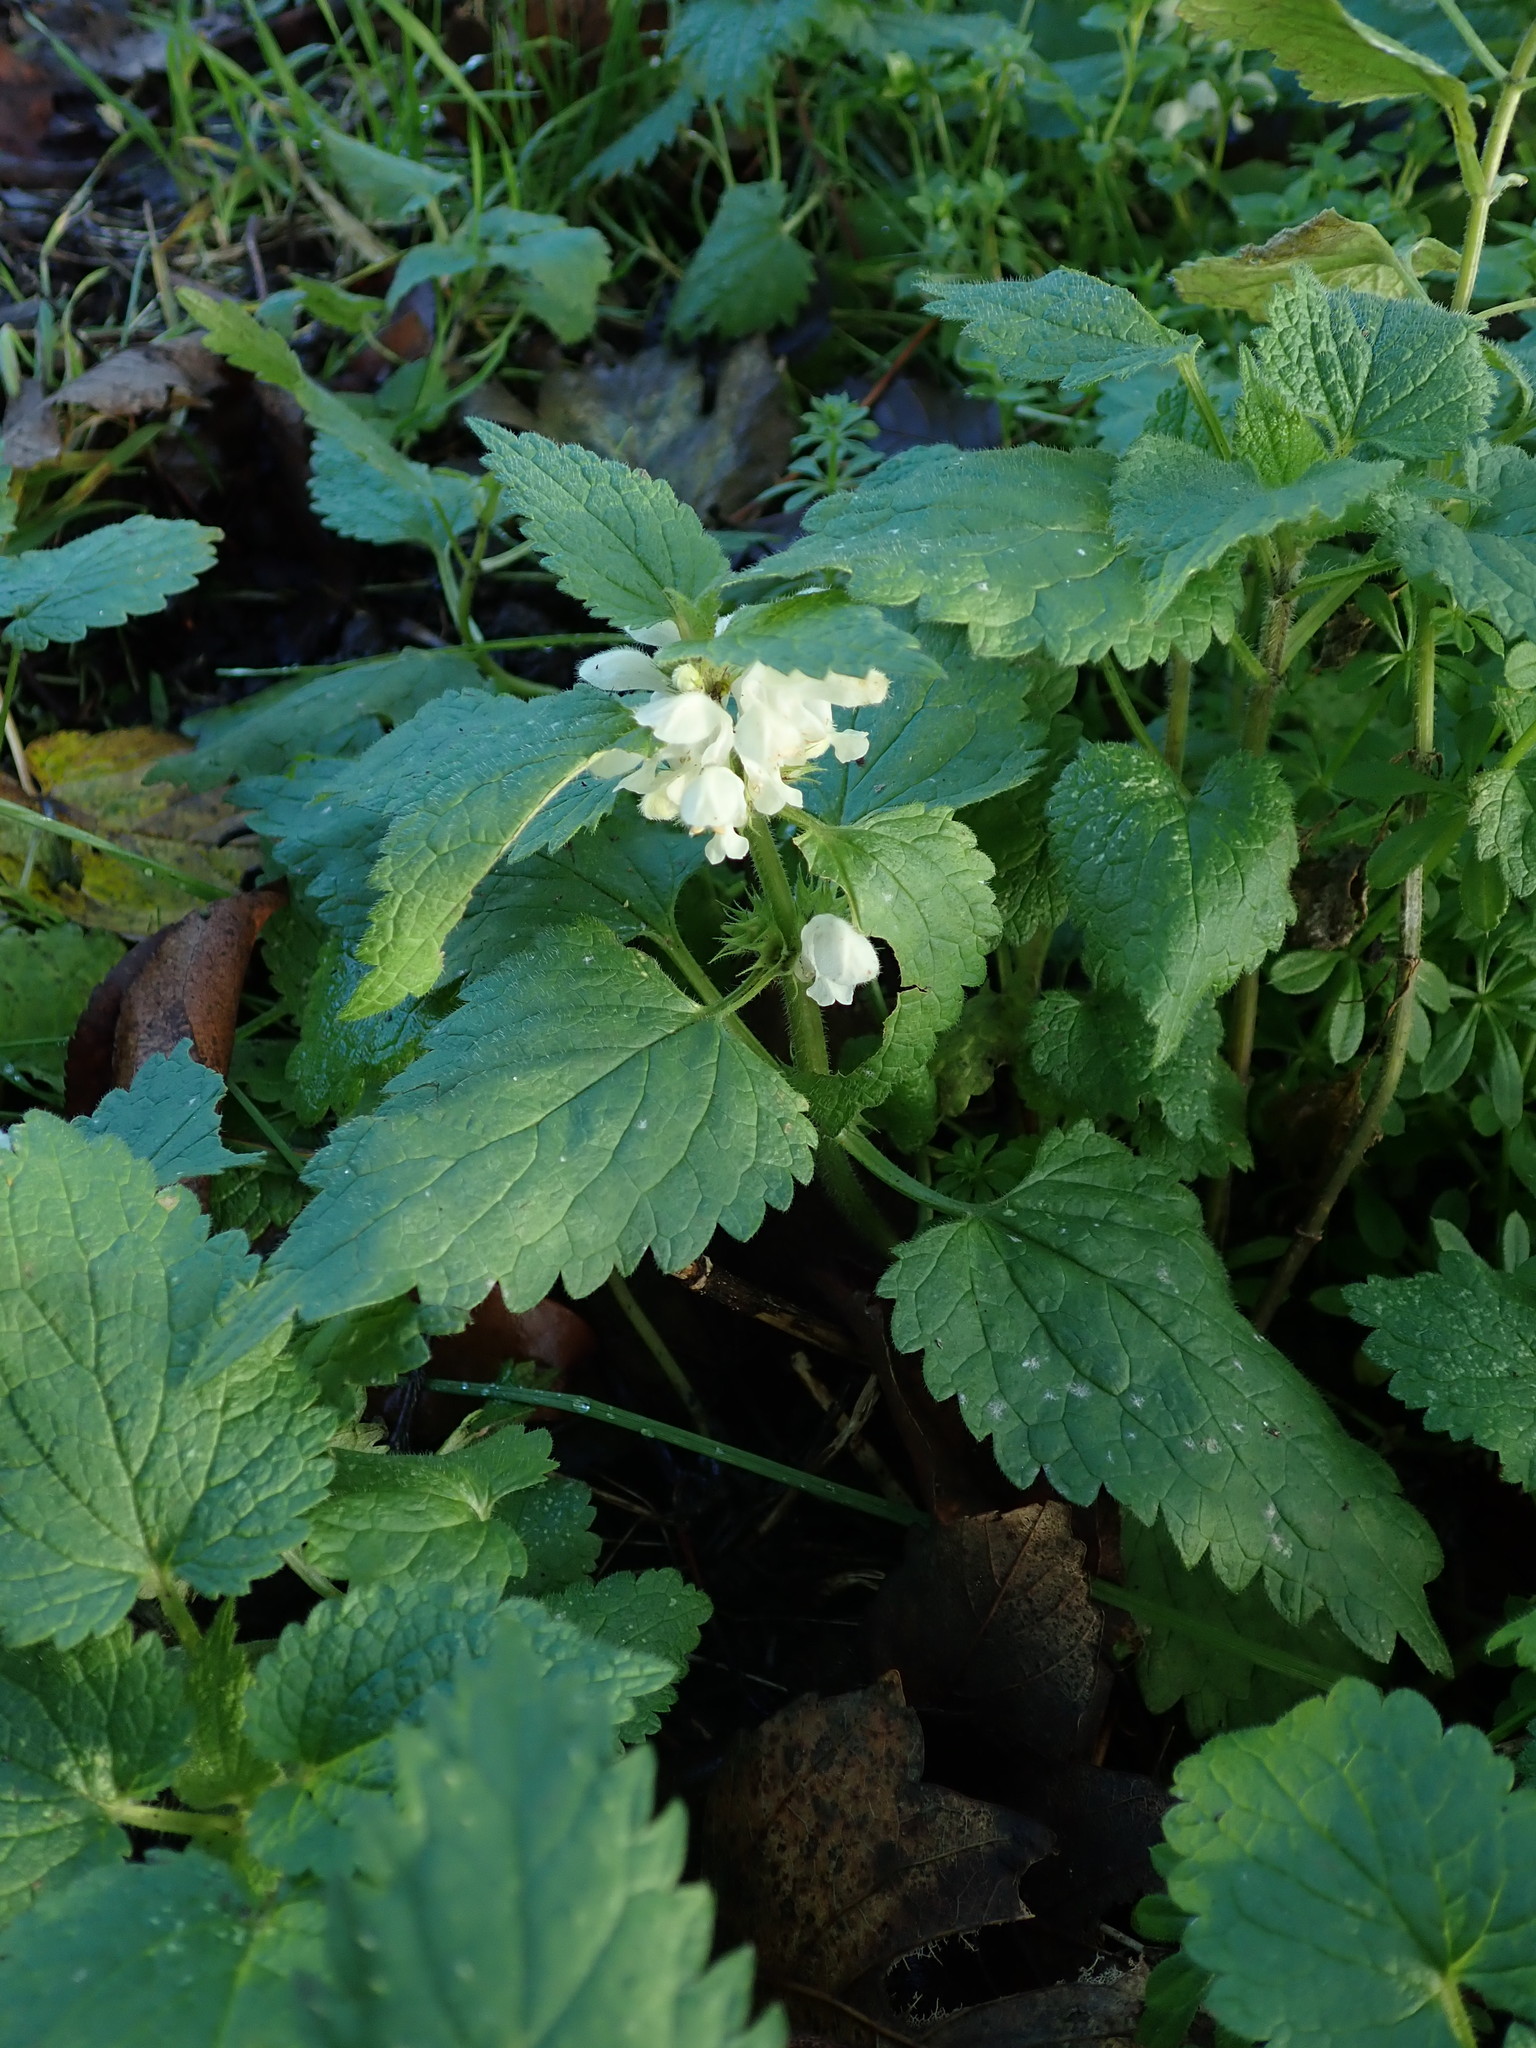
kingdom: Plantae
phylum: Tracheophyta
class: Magnoliopsida
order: Lamiales
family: Lamiaceae
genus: Lamium
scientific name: Lamium album
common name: White dead-nettle
